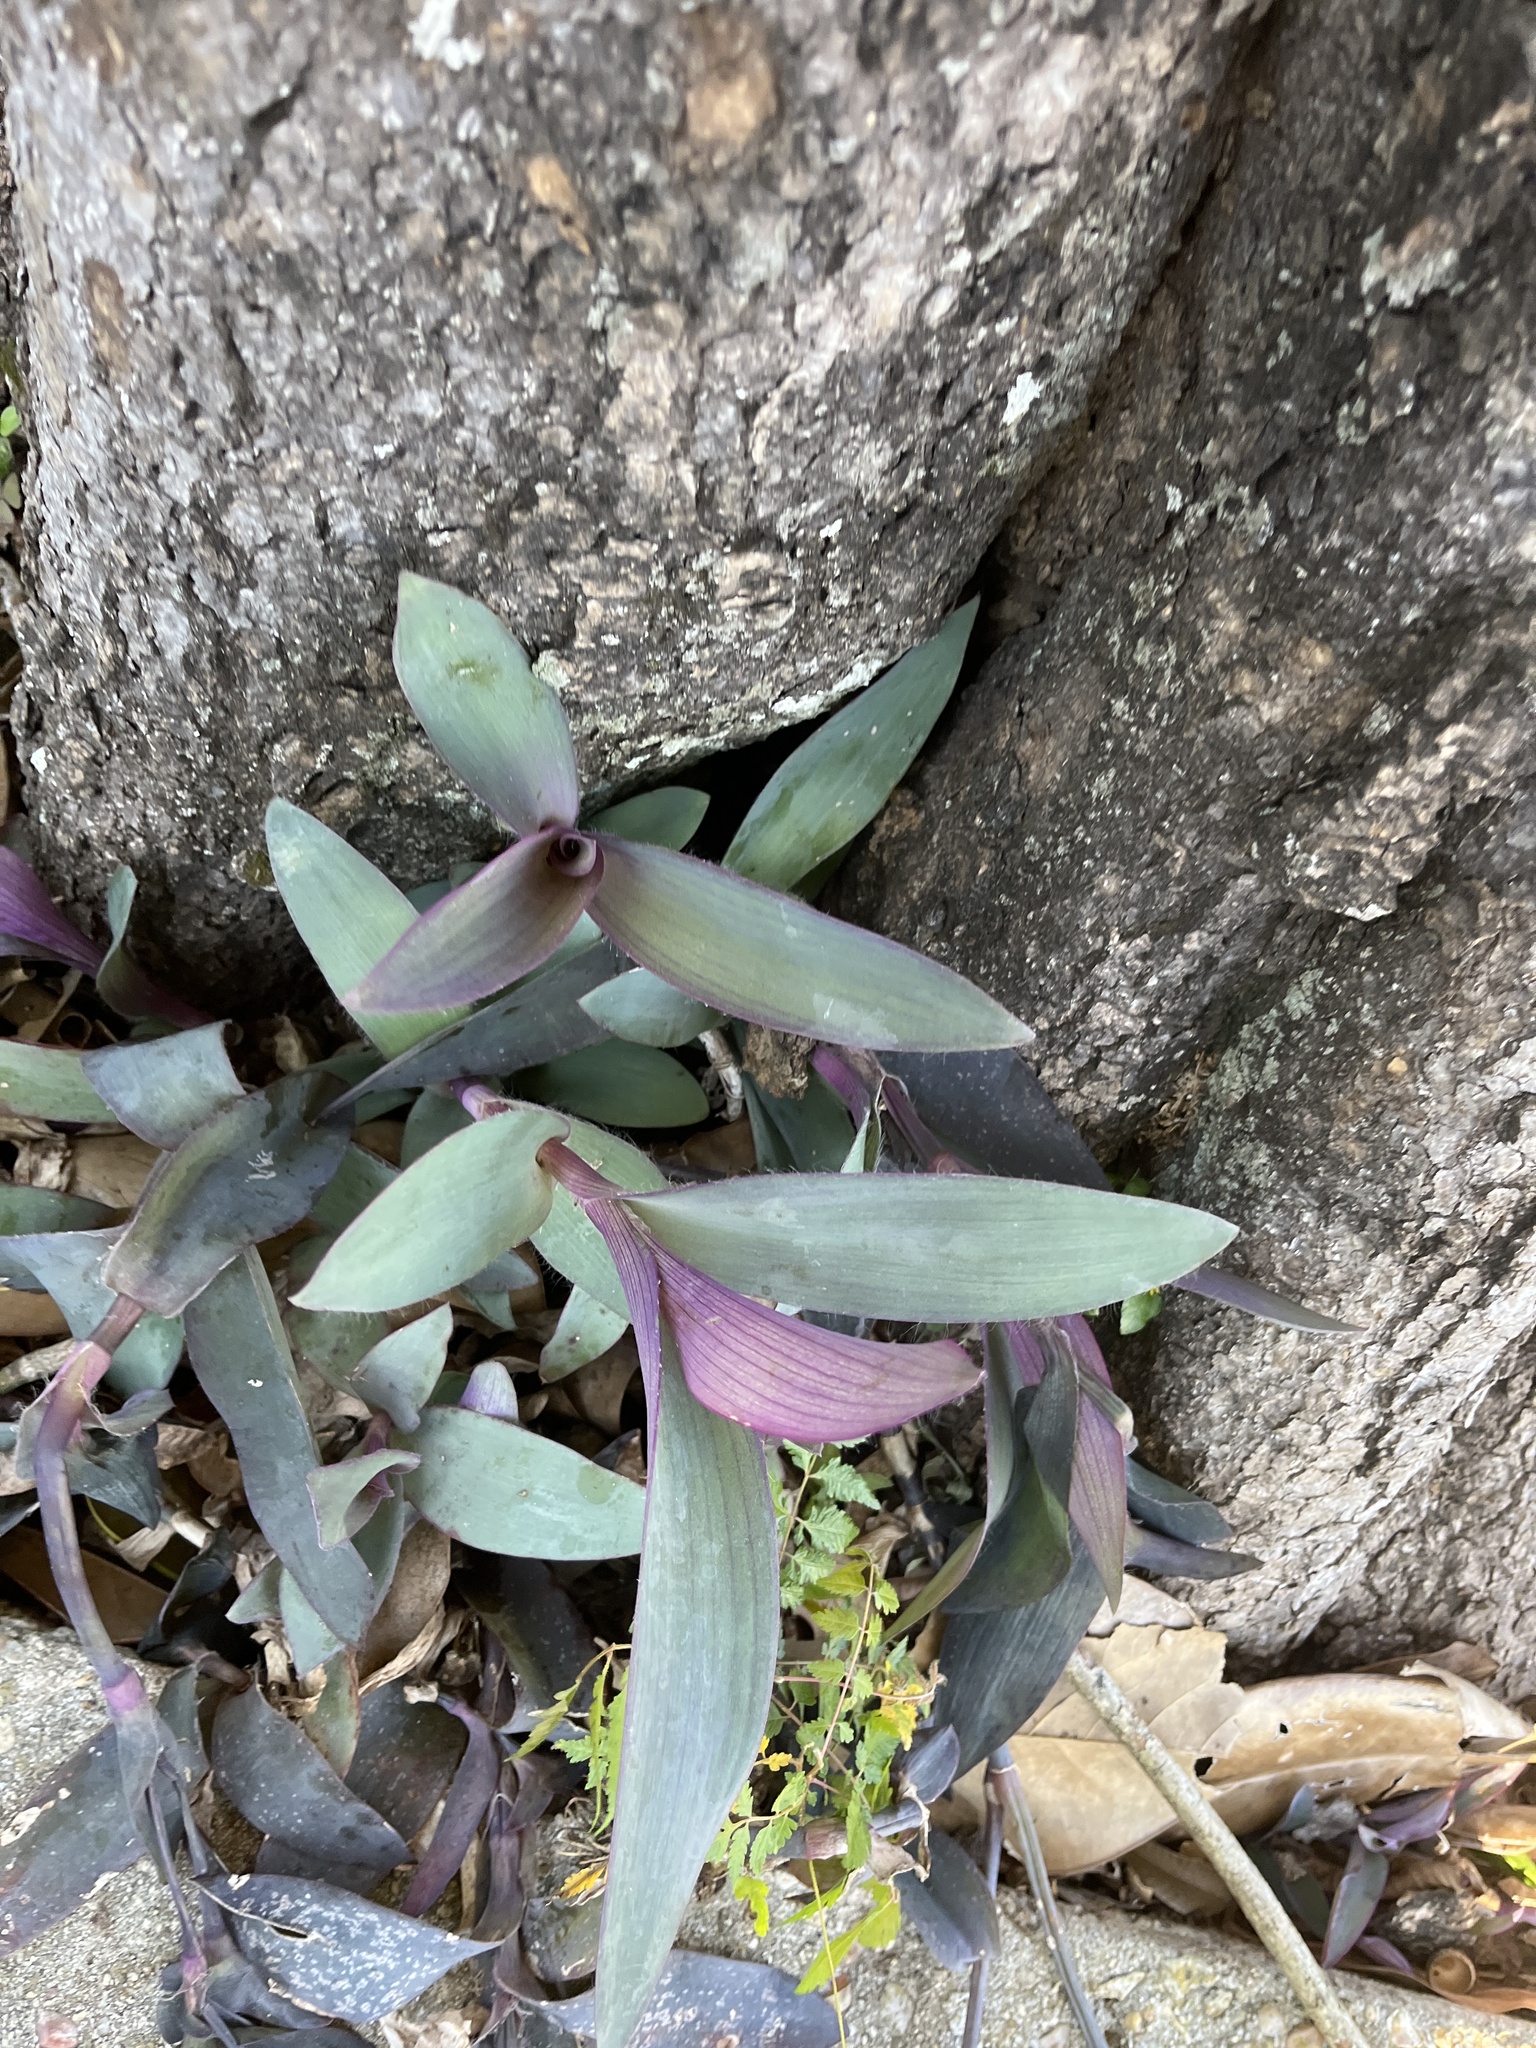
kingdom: Plantae
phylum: Tracheophyta
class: Liliopsida
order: Commelinales
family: Commelinaceae
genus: Tradescantia
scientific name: Tradescantia pallida
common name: Purpleheart
